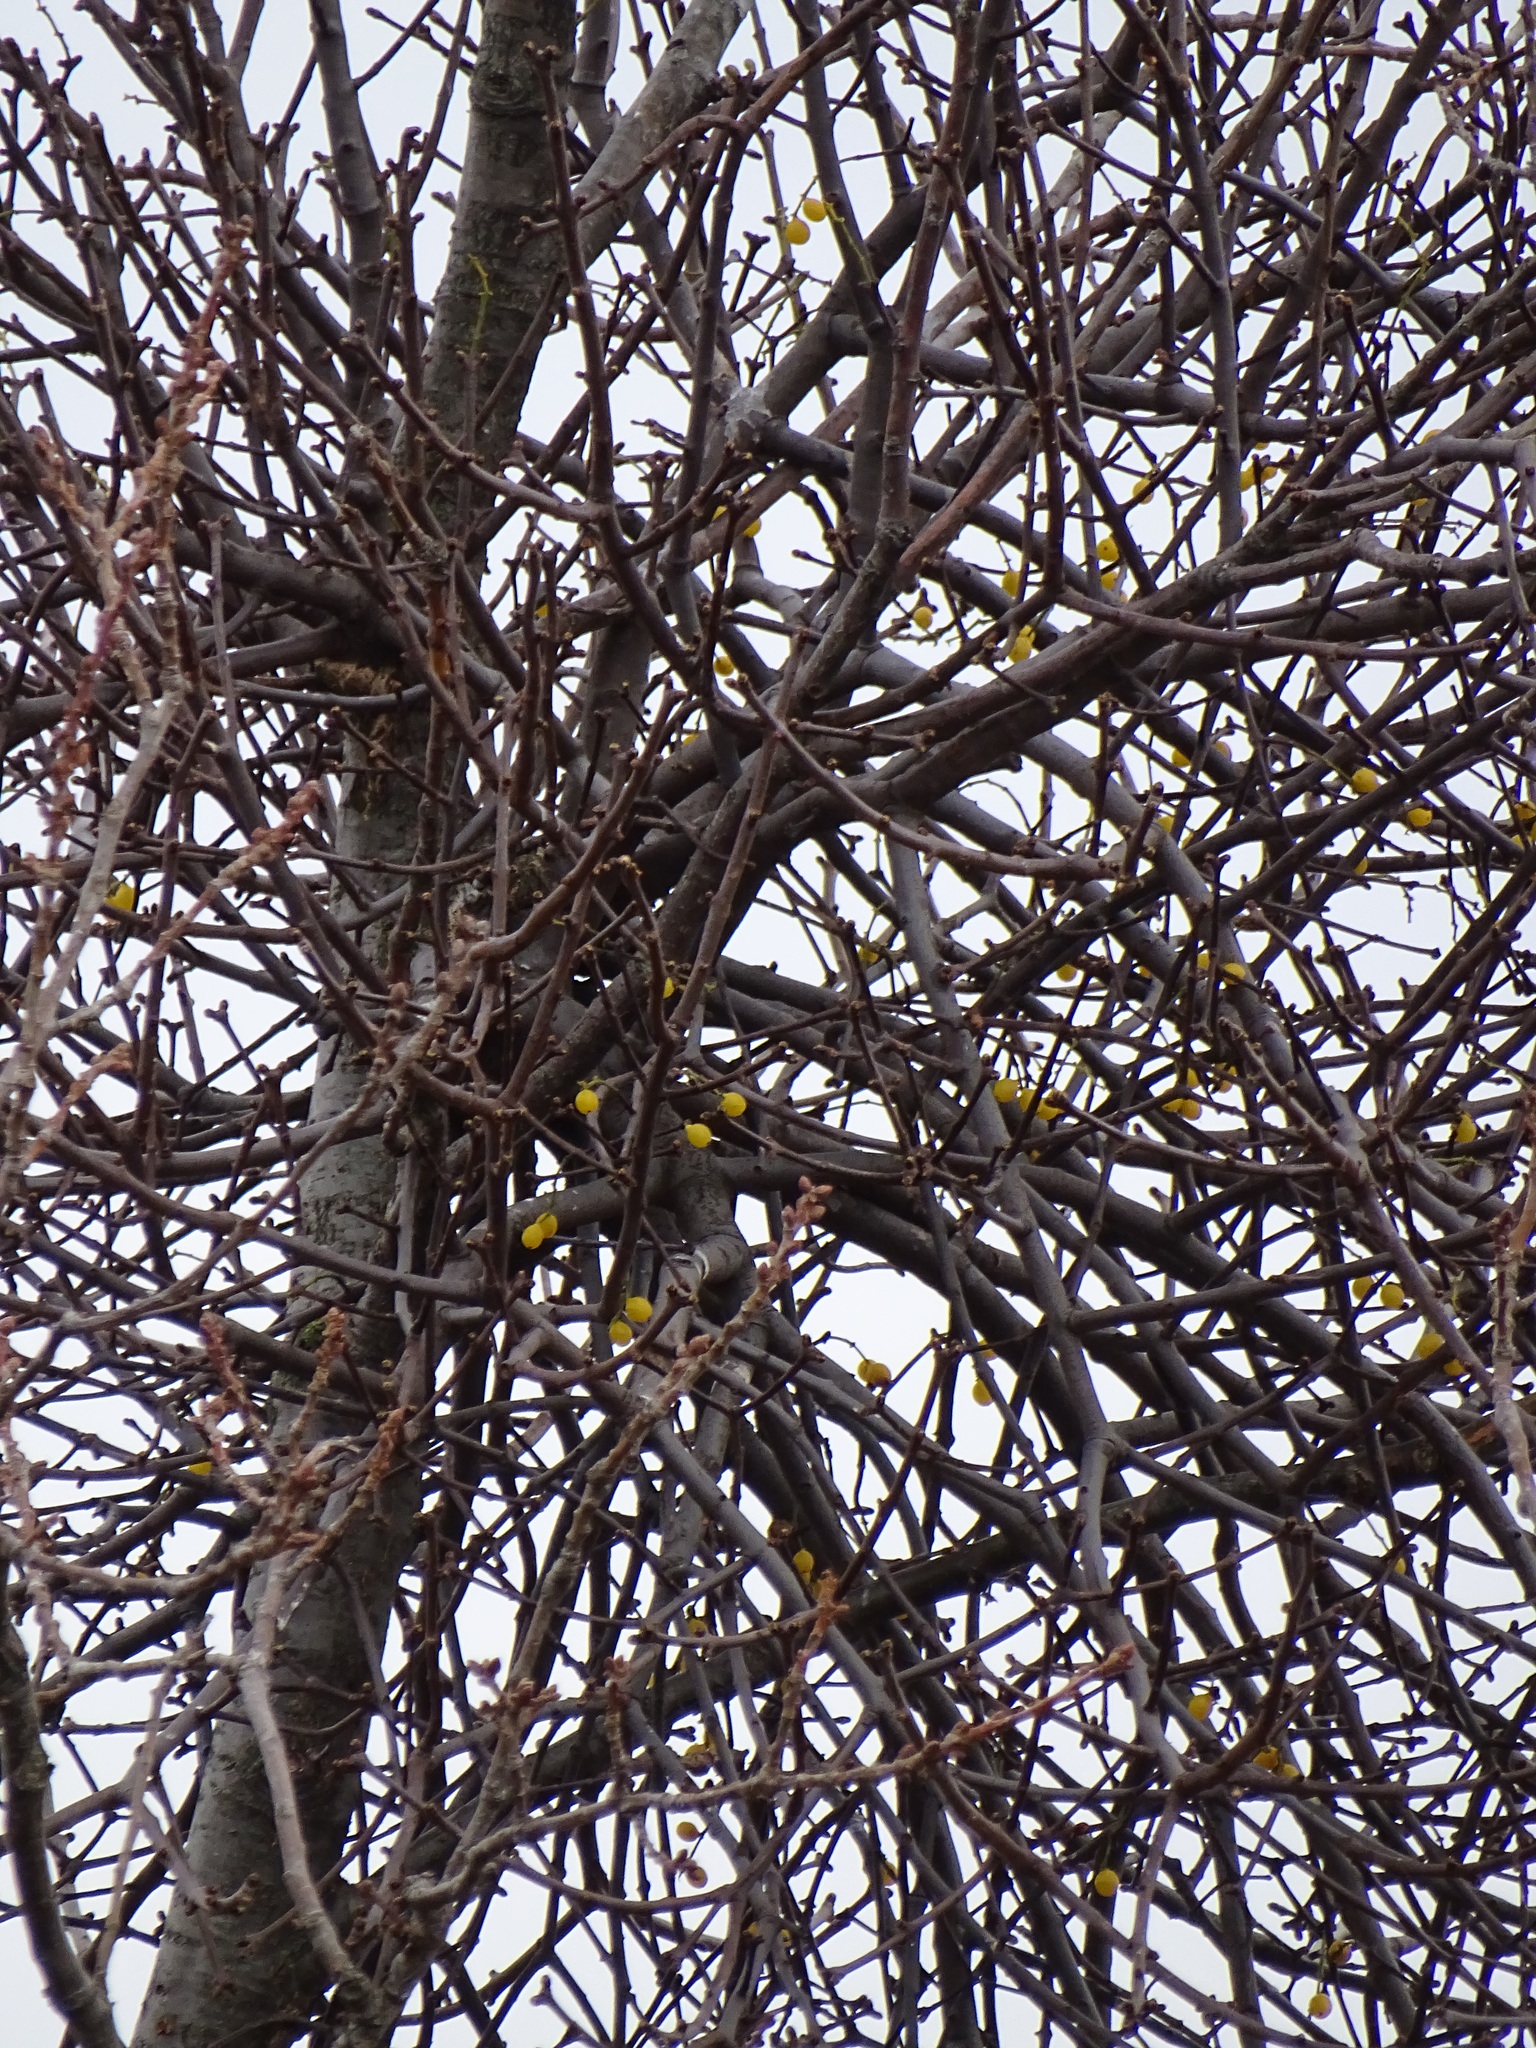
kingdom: Plantae
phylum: Tracheophyta
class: Magnoliopsida
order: Santalales
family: Loranthaceae
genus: Loranthus
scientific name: Loranthus europaeus
